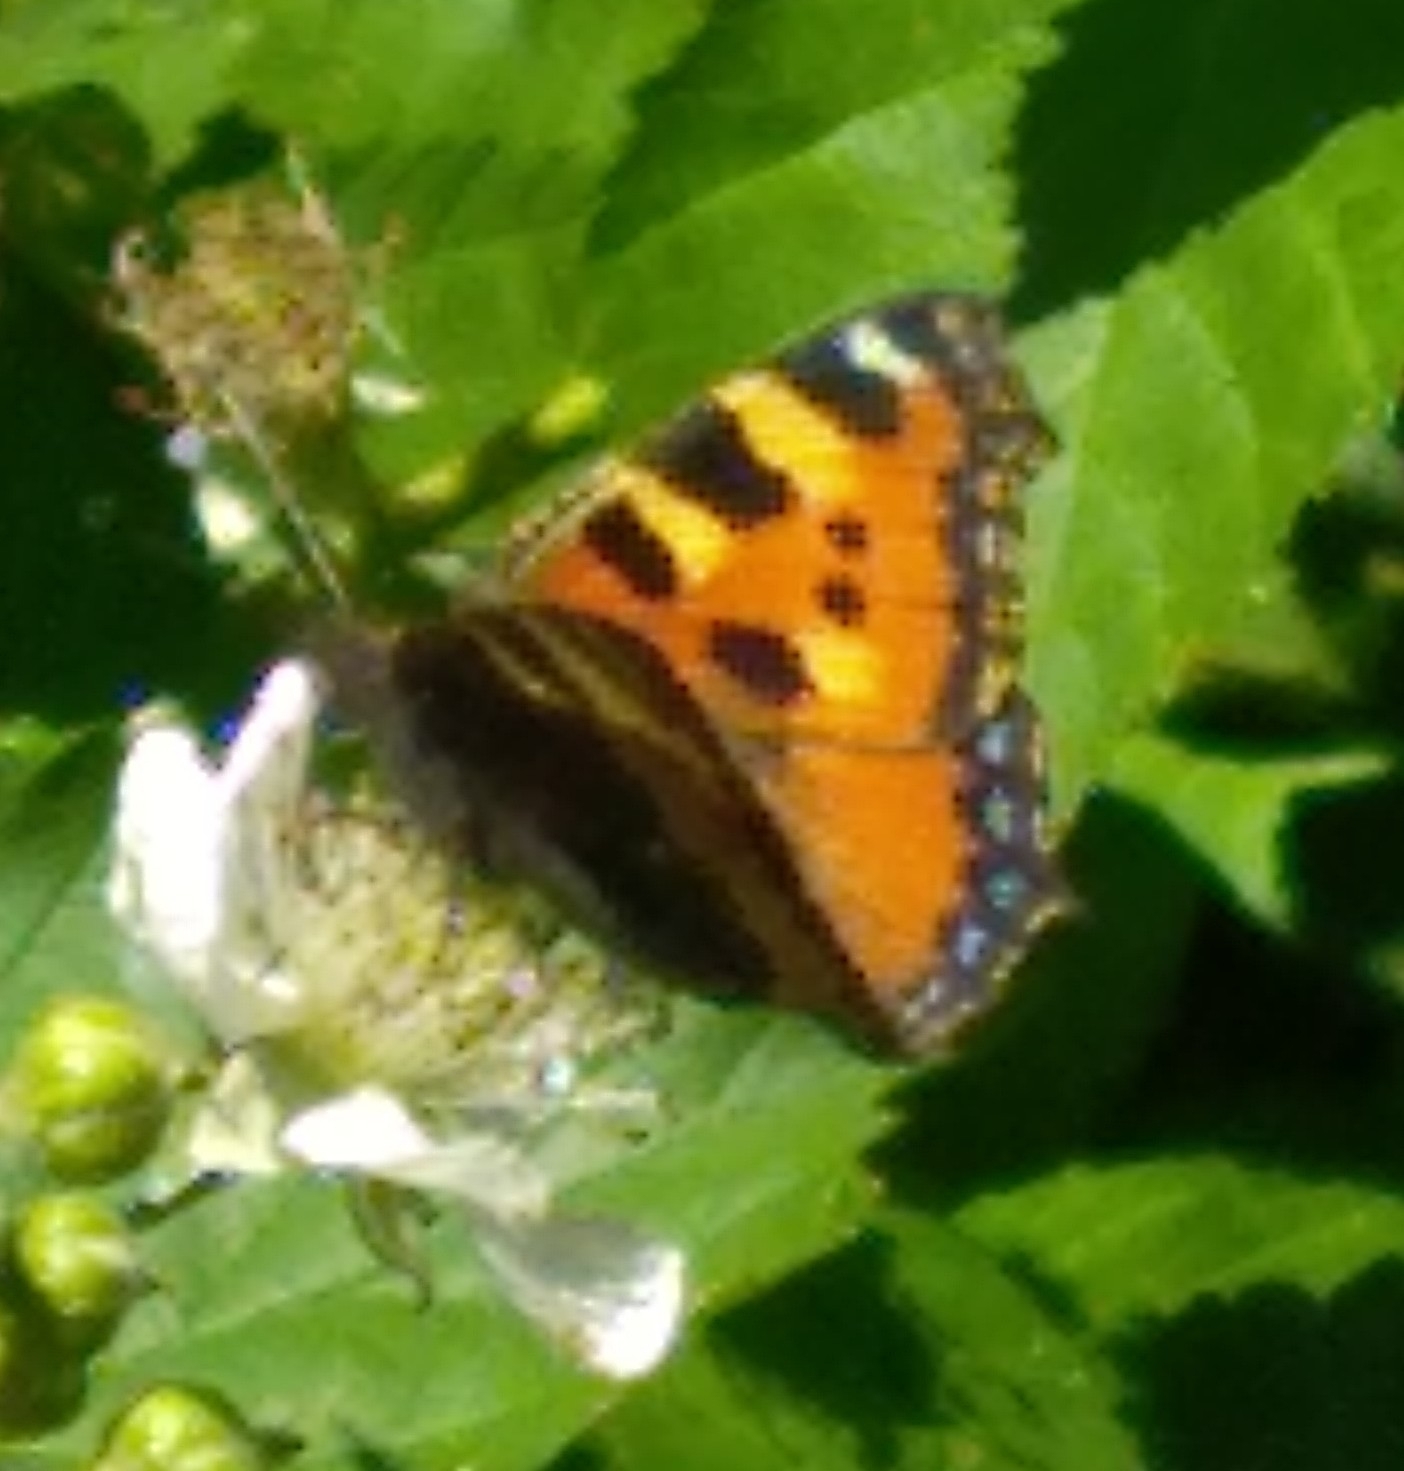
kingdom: Animalia
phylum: Arthropoda
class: Insecta
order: Lepidoptera
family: Nymphalidae
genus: Aglais
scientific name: Aglais urticae
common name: Small tortoiseshell
